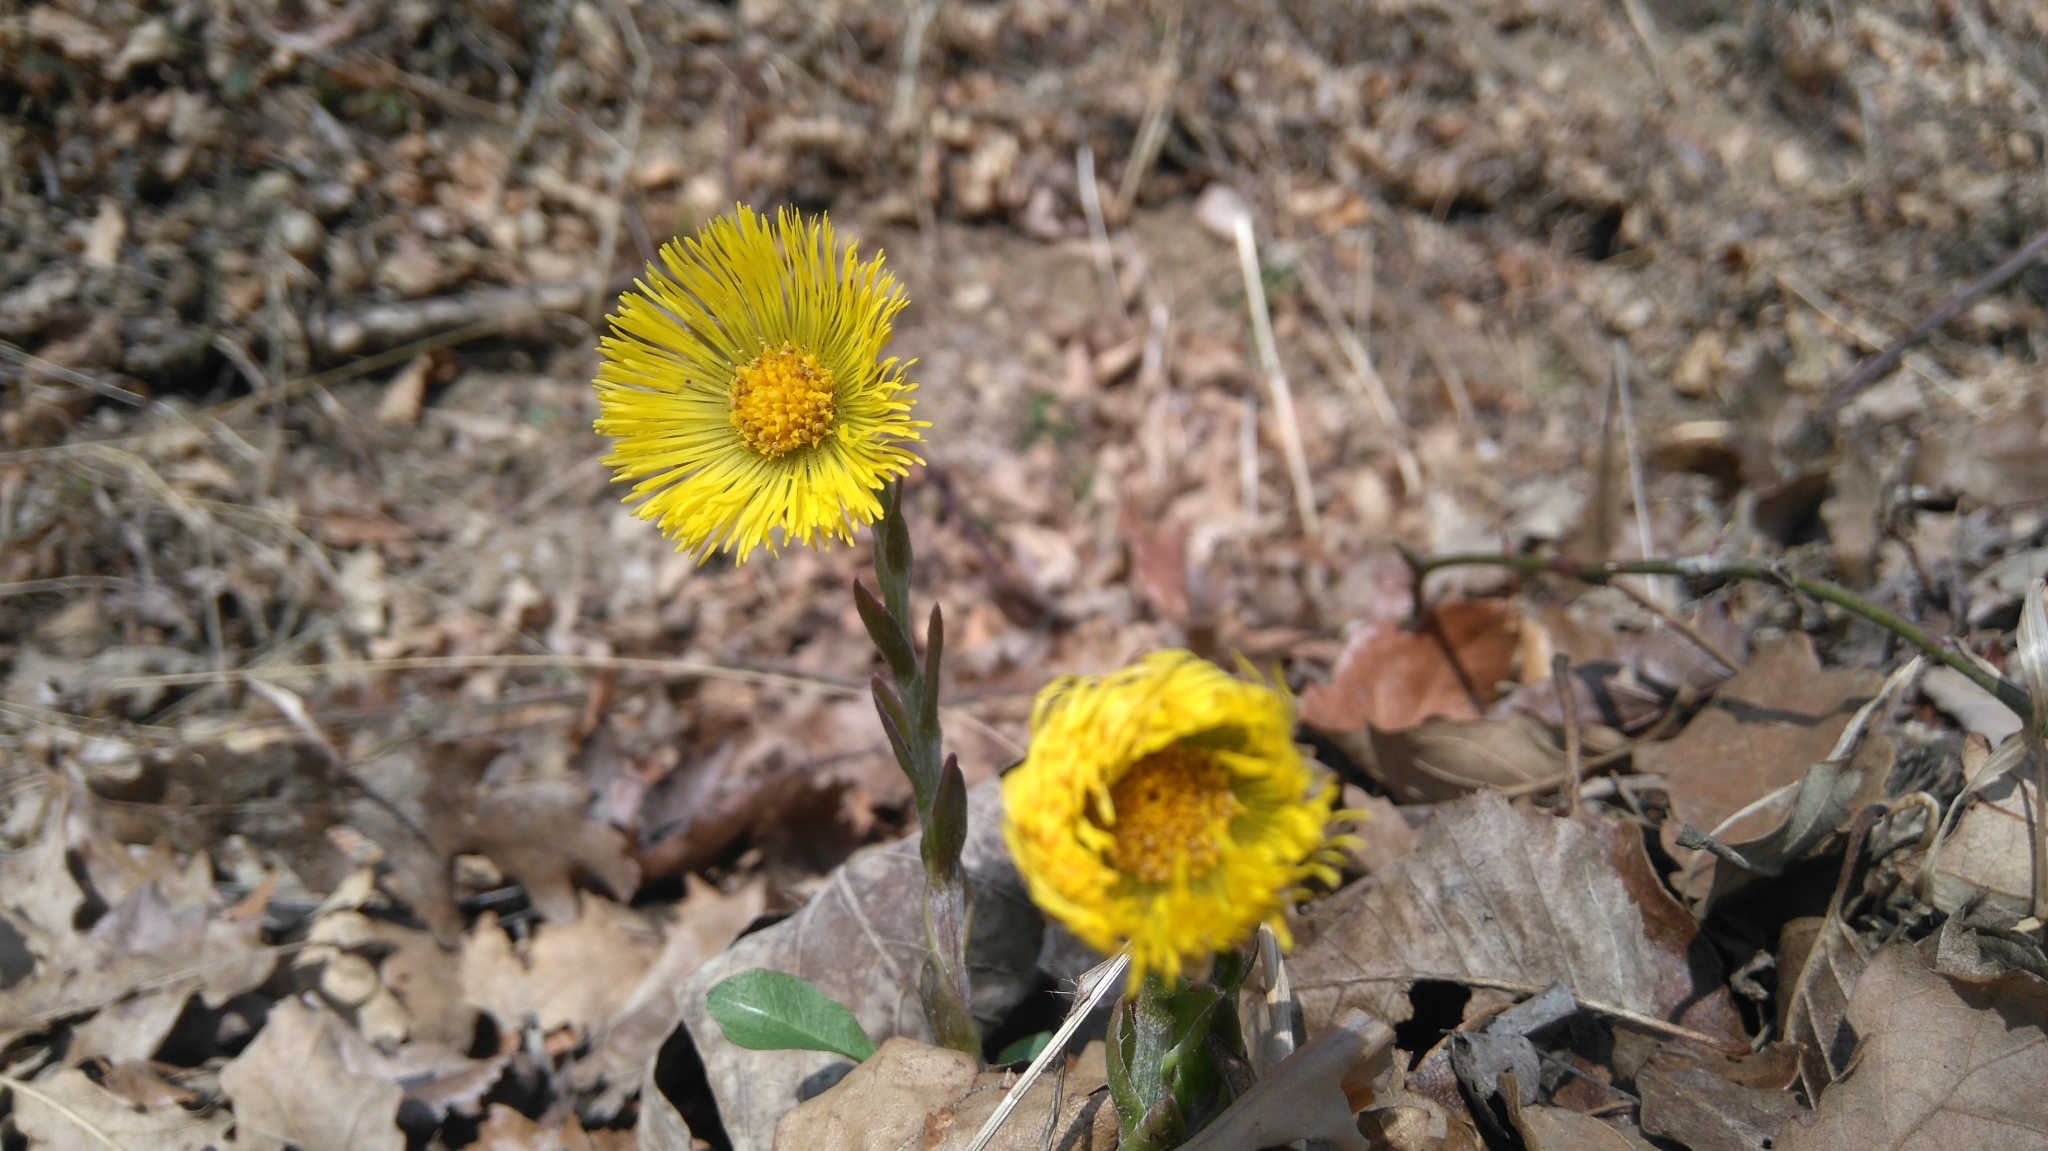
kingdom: Plantae
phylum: Tracheophyta
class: Magnoliopsida
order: Asterales
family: Asteraceae
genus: Tussilago
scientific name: Tussilago farfara
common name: Coltsfoot
